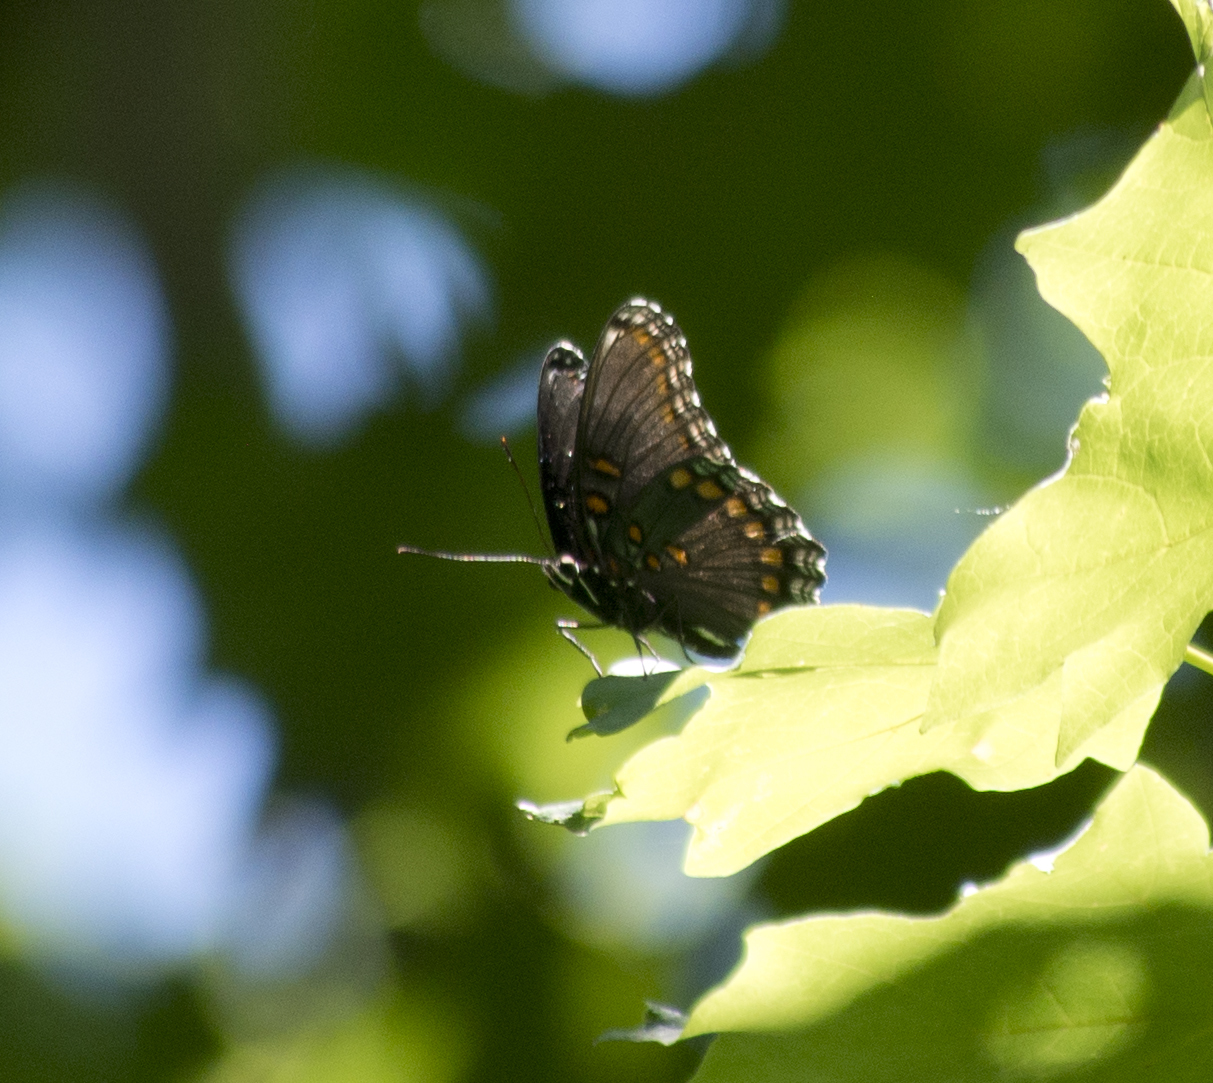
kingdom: Animalia
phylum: Arthropoda
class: Insecta
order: Lepidoptera
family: Nymphalidae
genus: Limenitis
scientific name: Limenitis arthemis
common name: Red-spotted admiral
